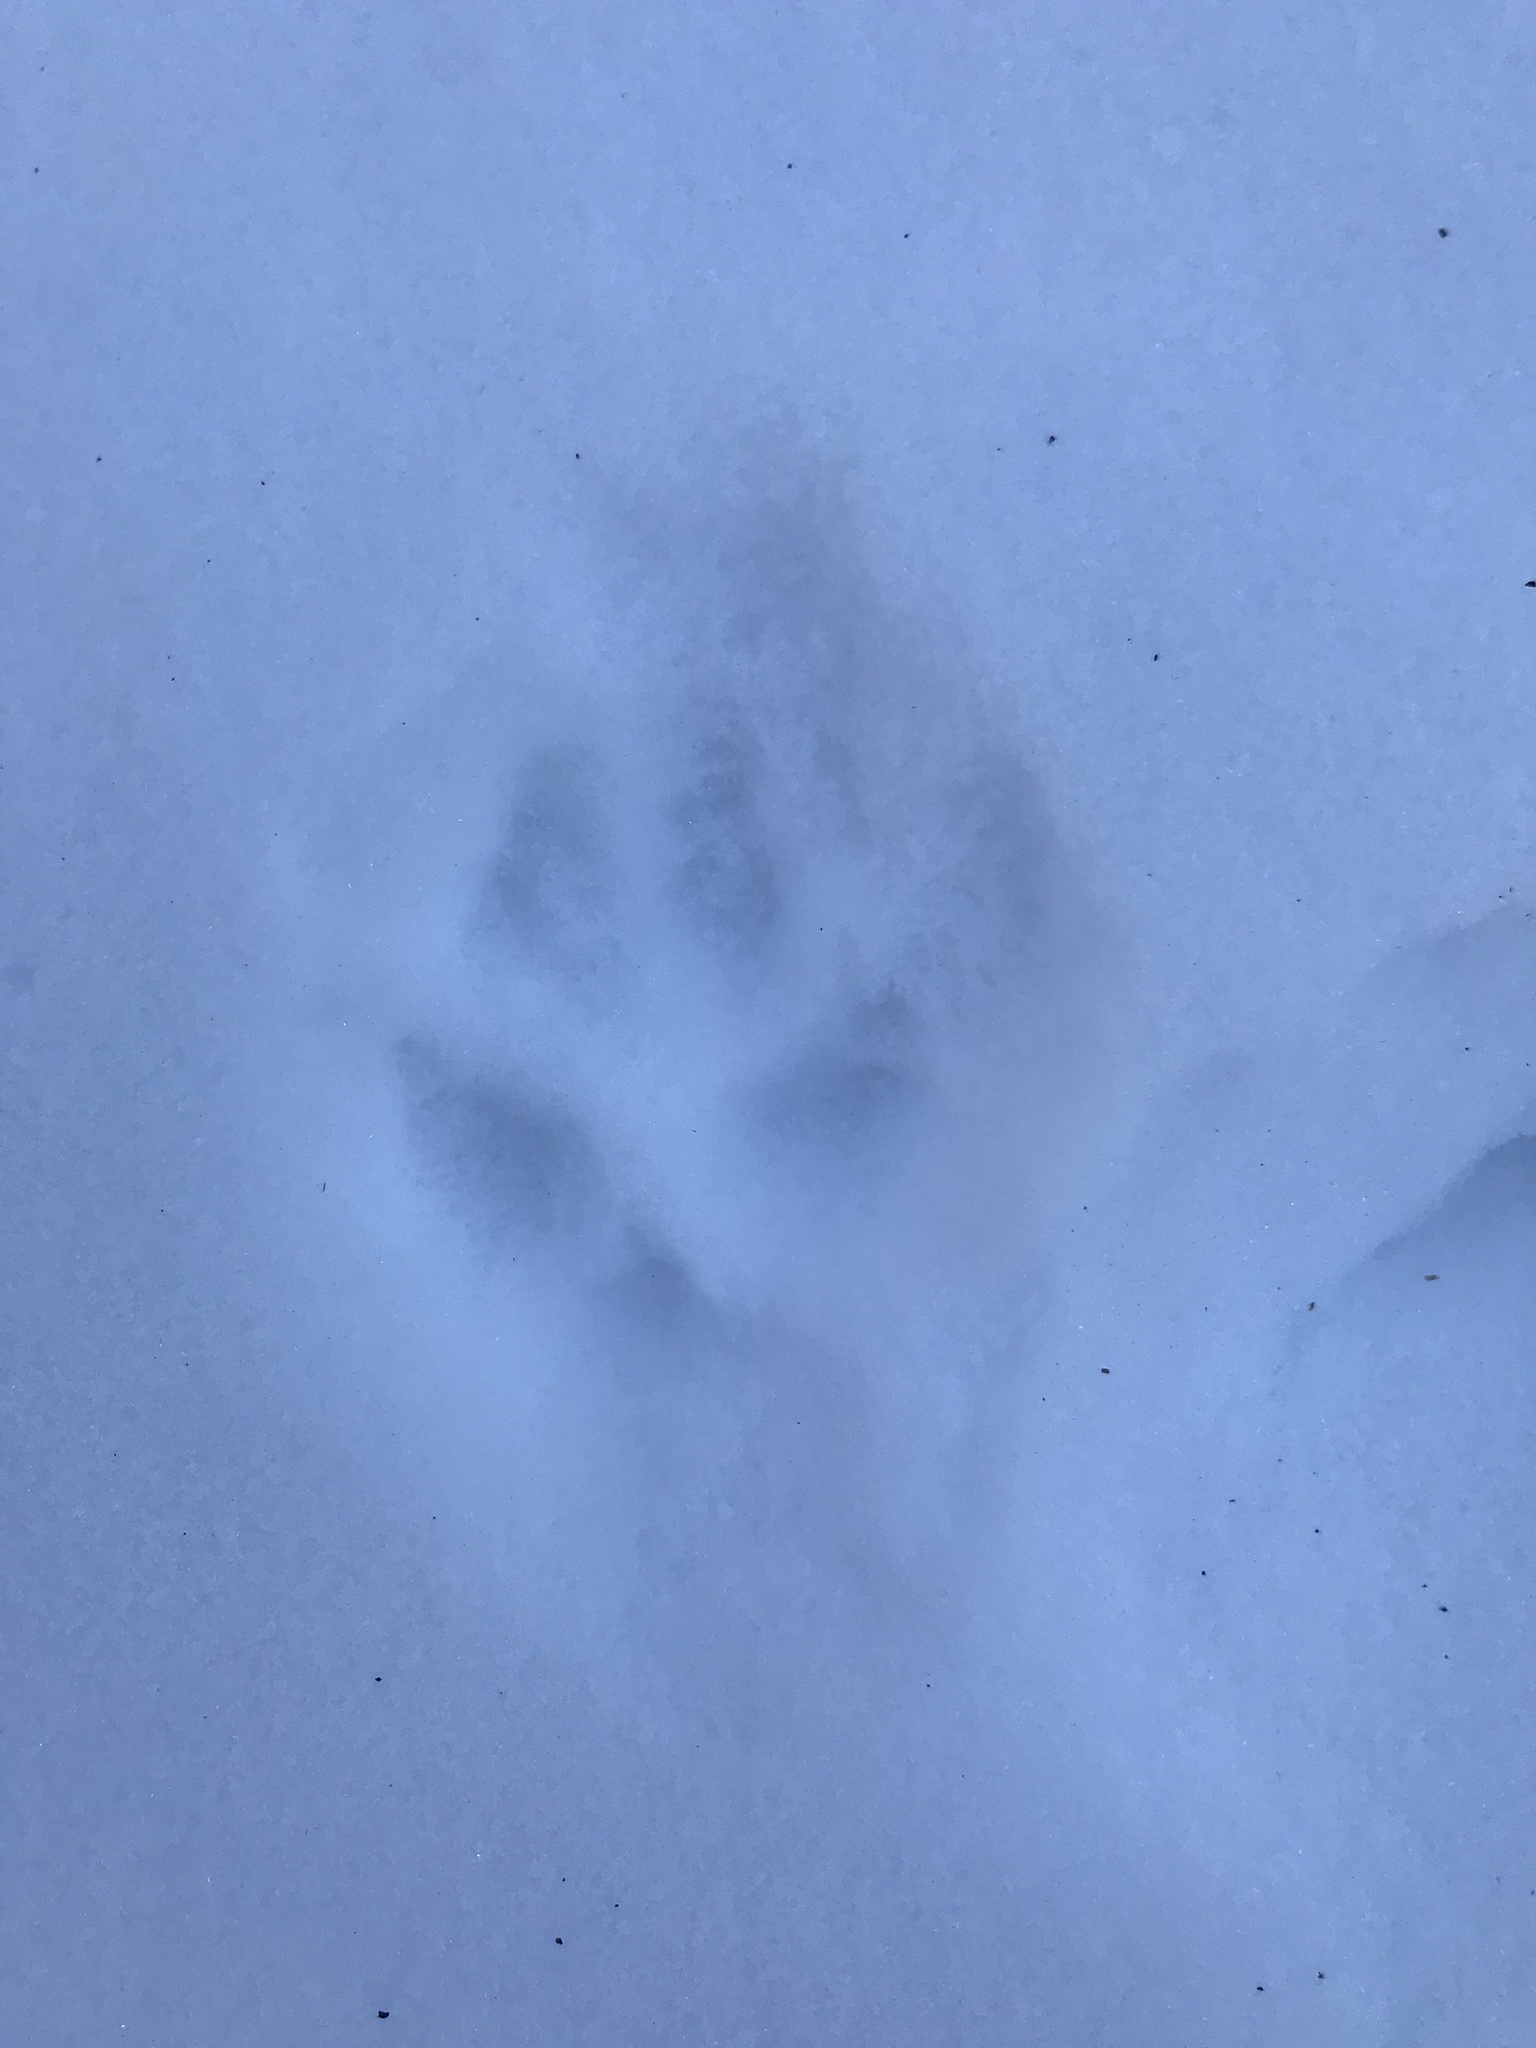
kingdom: Animalia
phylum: Chordata
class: Mammalia
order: Carnivora
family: Canidae
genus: Vulpes
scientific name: Vulpes vulpes
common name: Red fox
